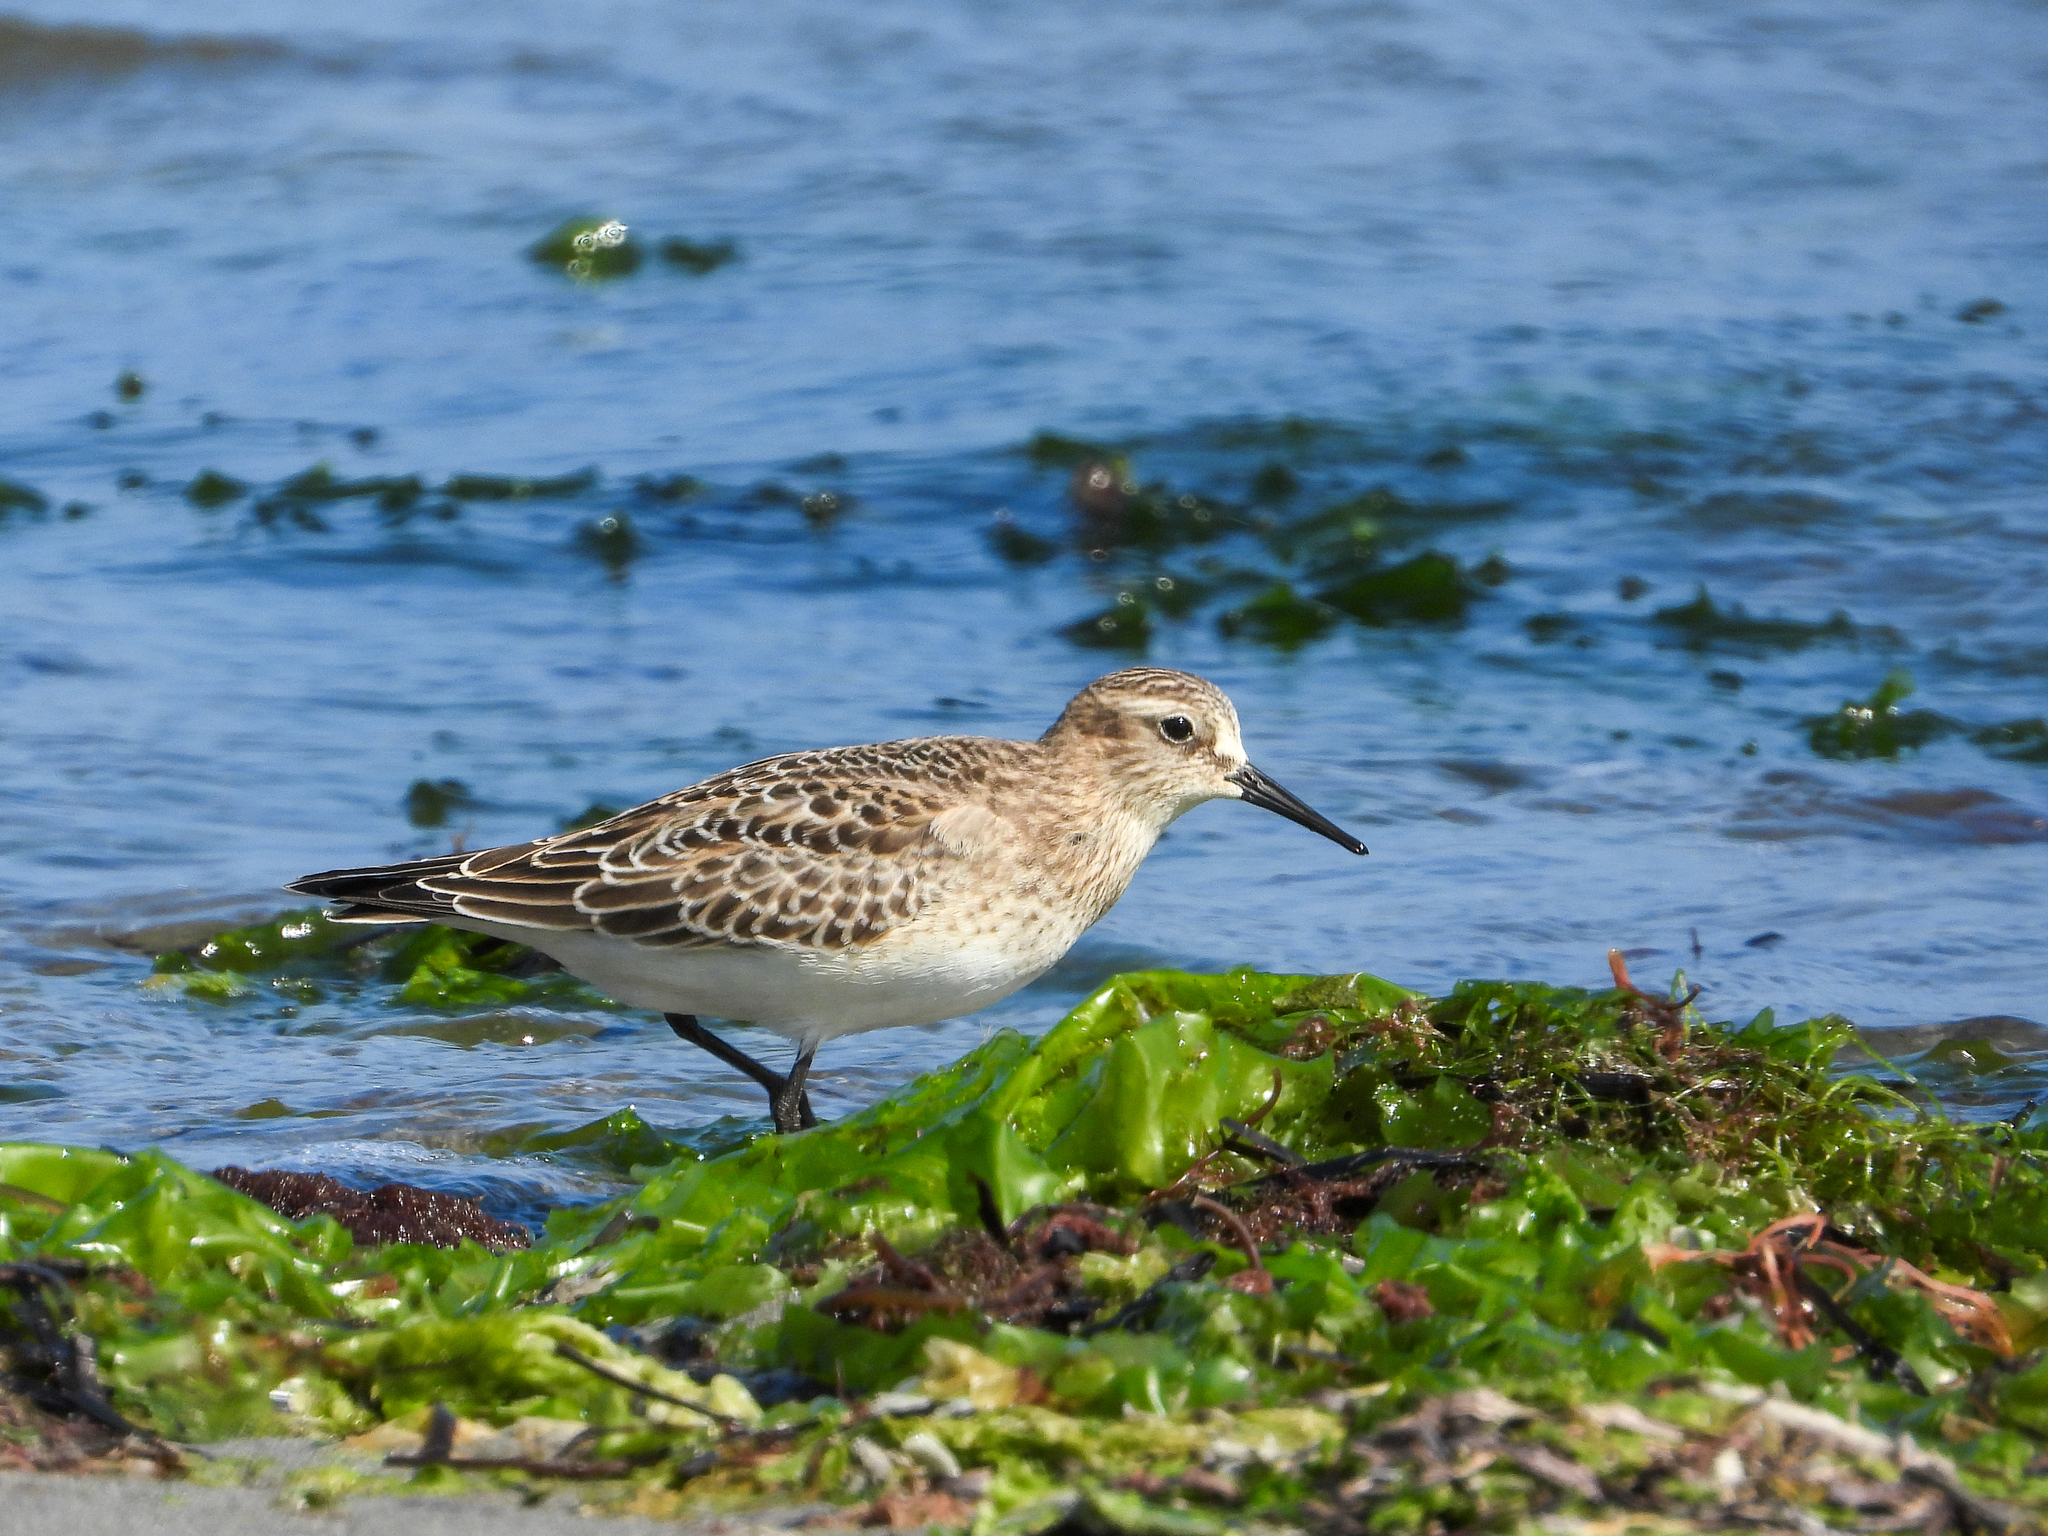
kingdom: Animalia
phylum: Chordata
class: Aves
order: Charadriiformes
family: Scolopacidae
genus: Calidris
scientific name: Calidris bairdii
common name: Baird's sandpiper
